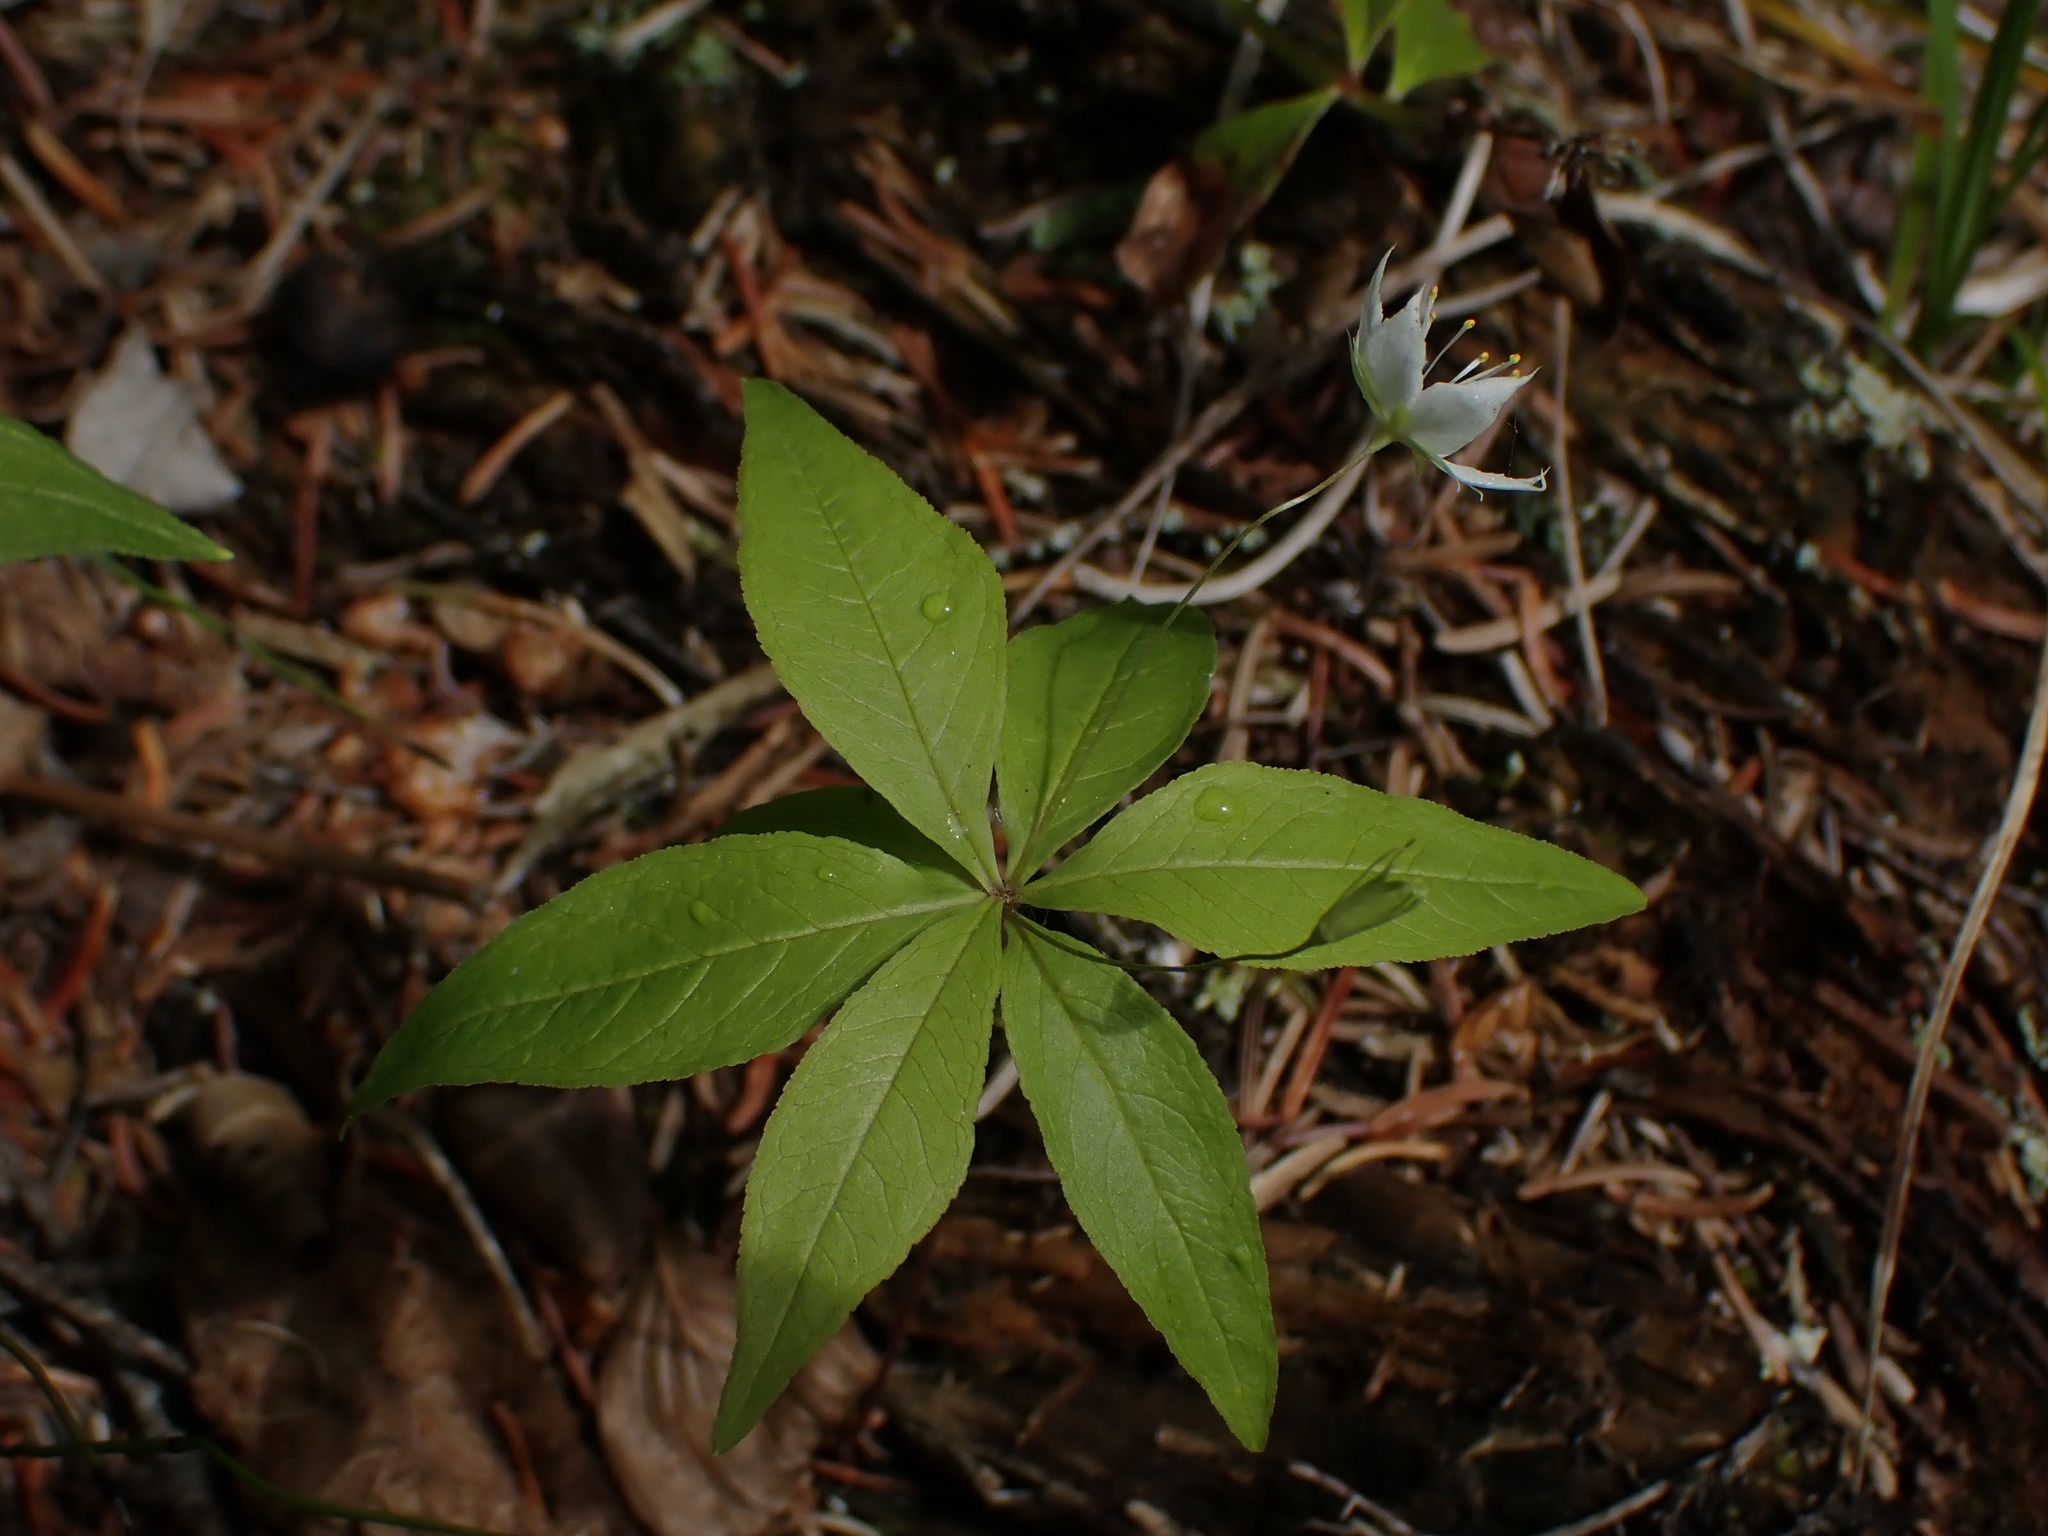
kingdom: Plantae
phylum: Tracheophyta
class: Magnoliopsida
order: Ericales
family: Primulaceae
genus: Lysimachia
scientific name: Lysimachia borealis
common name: American starflower
